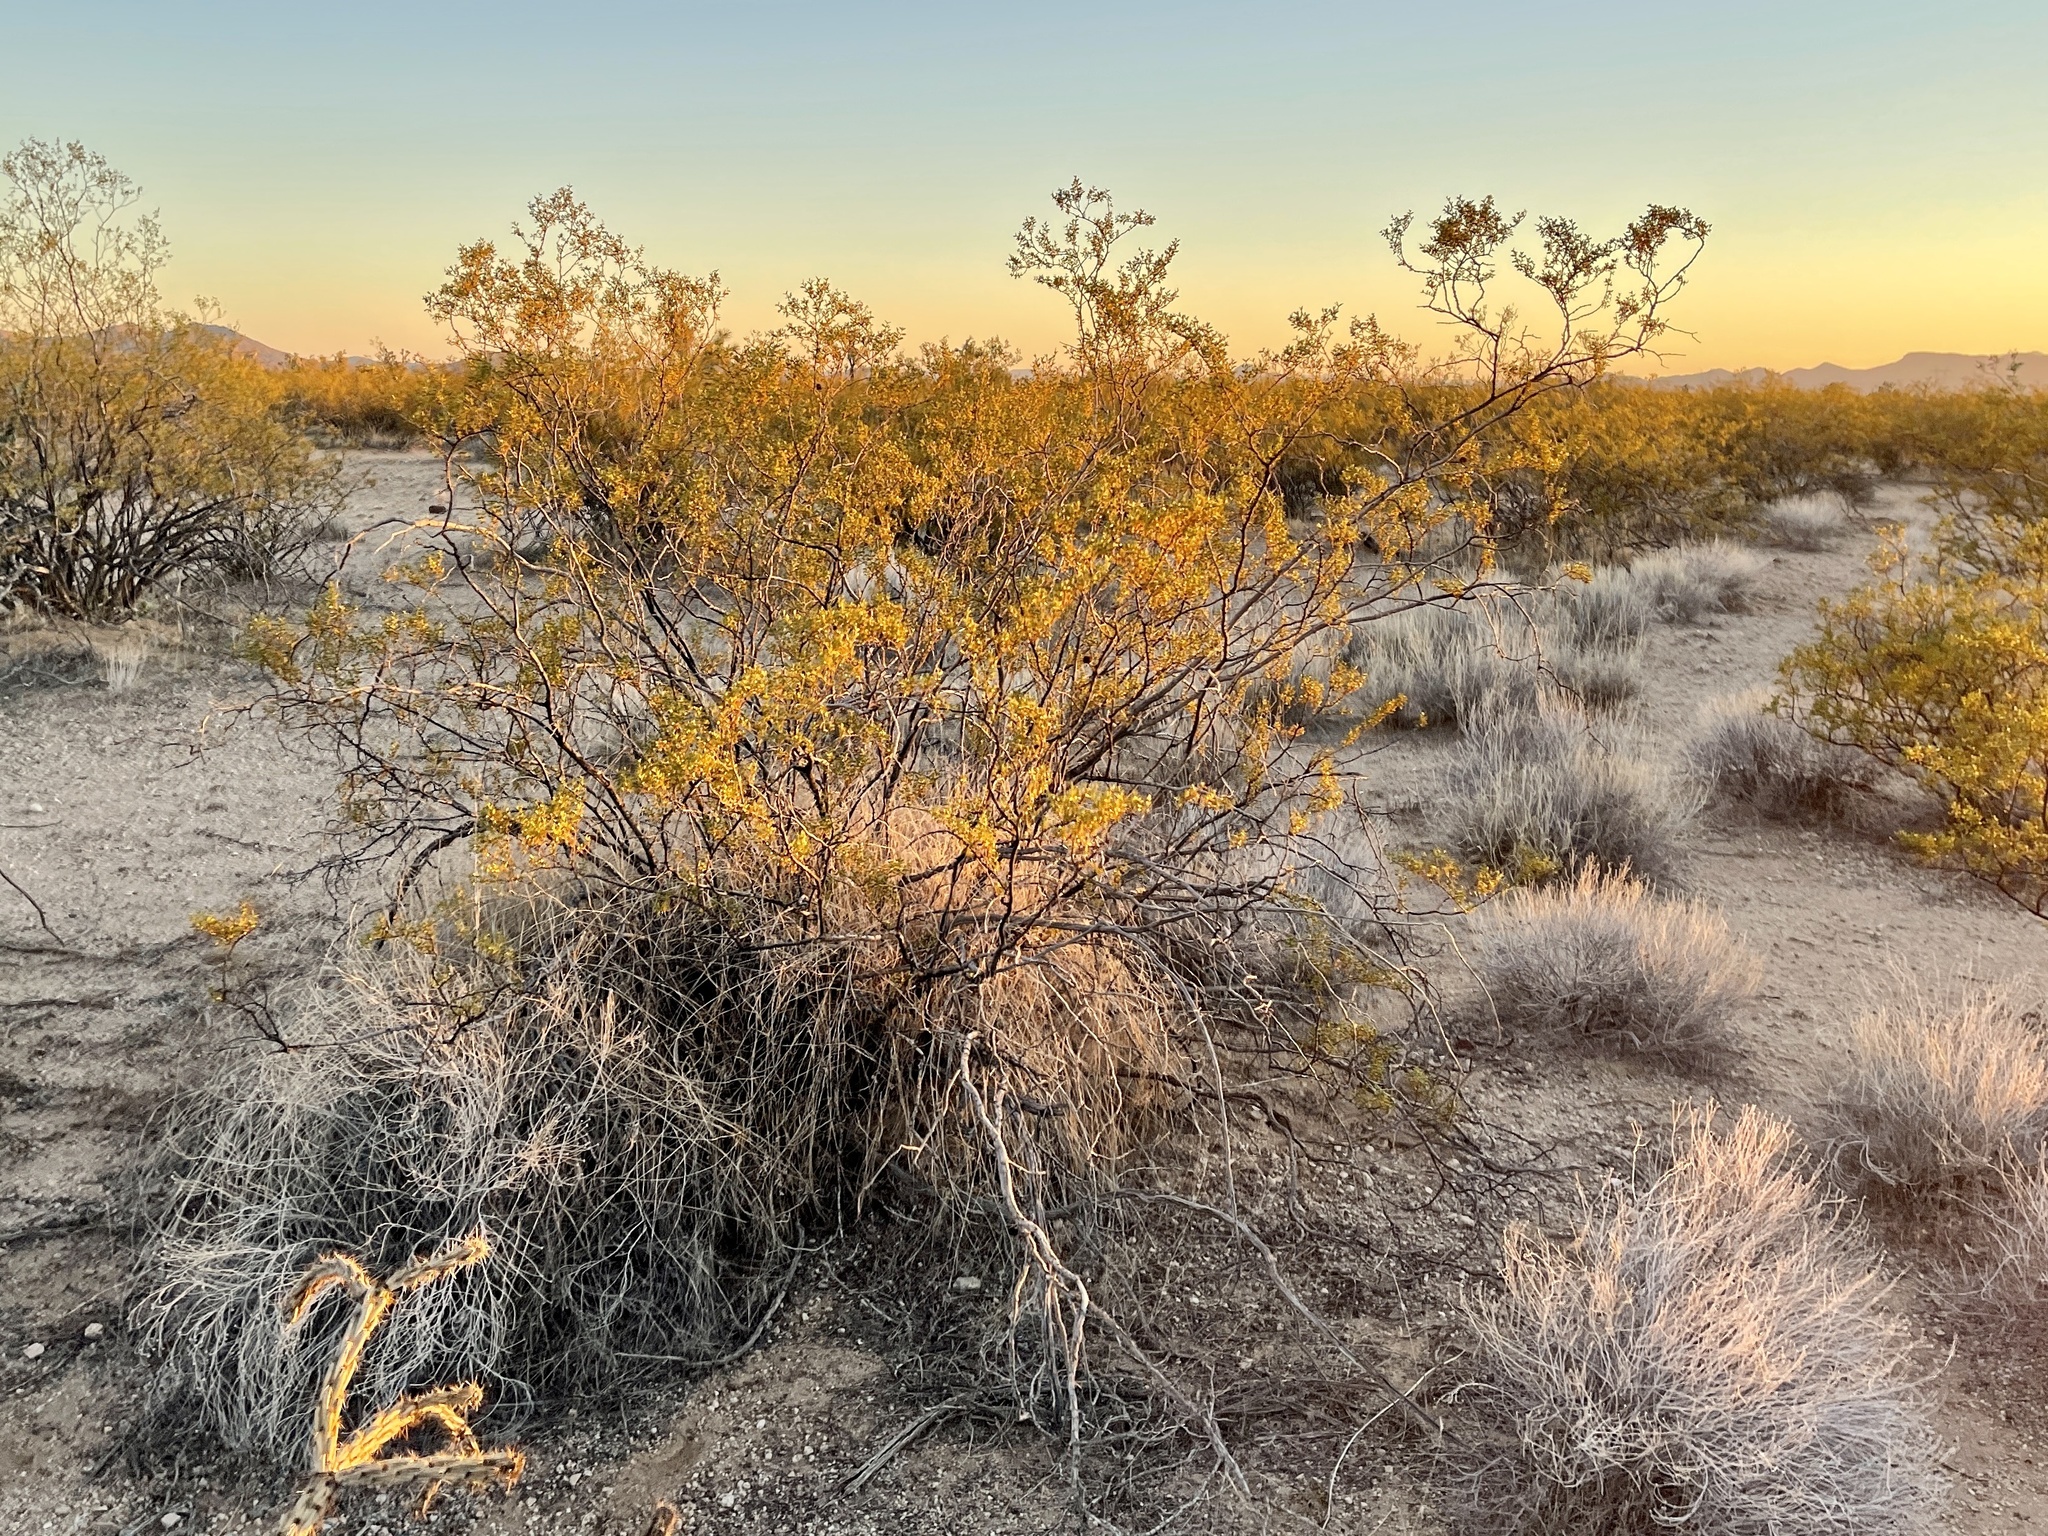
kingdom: Plantae
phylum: Tracheophyta
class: Magnoliopsida
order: Zygophyllales
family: Zygophyllaceae
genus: Larrea
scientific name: Larrea tridentata
